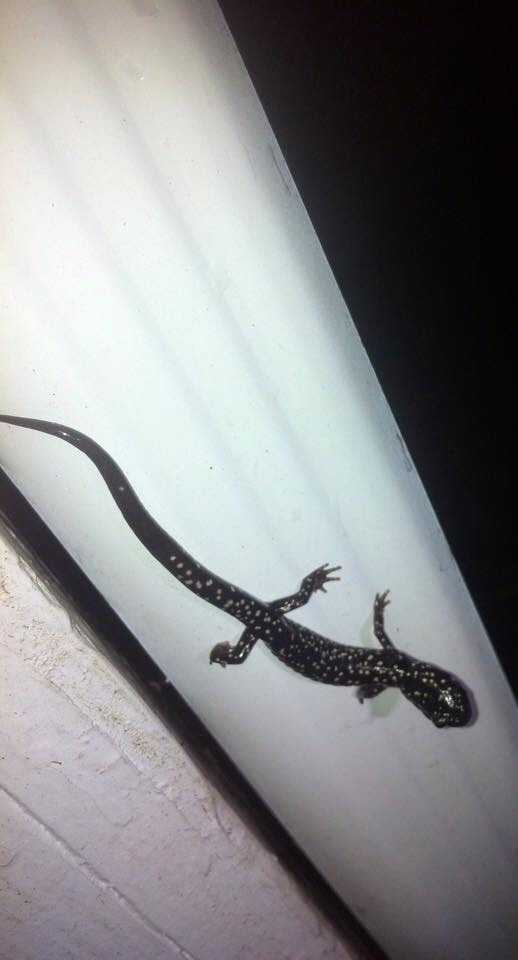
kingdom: Animalia
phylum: Chordata
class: Amphibia
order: Caudata
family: Plethodontidae
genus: Plethodon
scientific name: Plethodon glutinosus
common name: Northern slimy salamander
